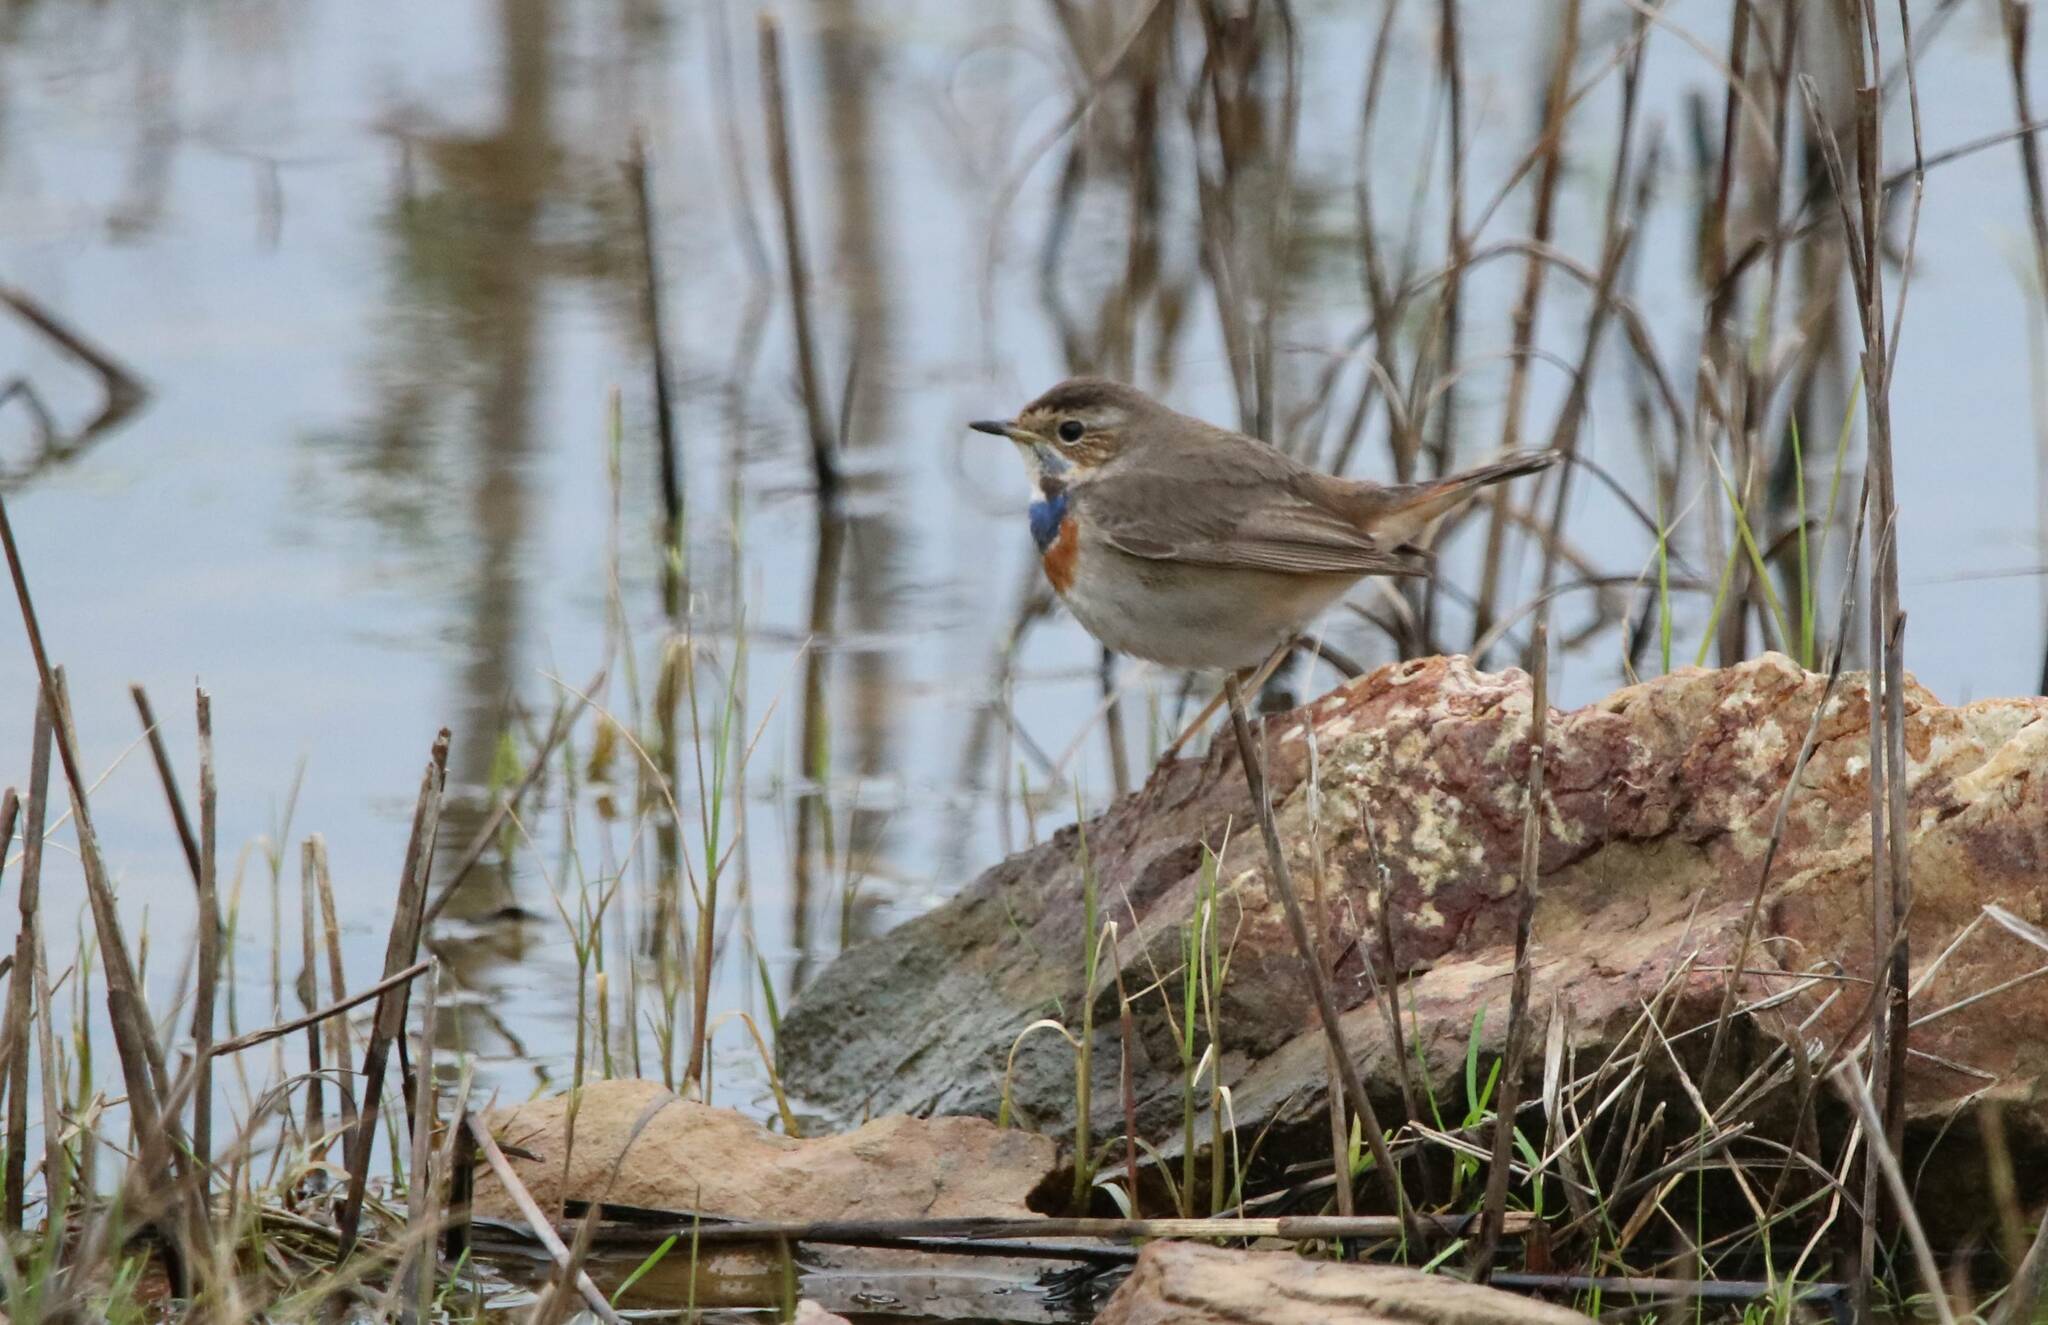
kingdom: Animalia
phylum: Chordata
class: Aves
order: Passeriformes
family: Muscicapidae
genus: Luscinia
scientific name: Luscinia svecica
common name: Bluethroat
